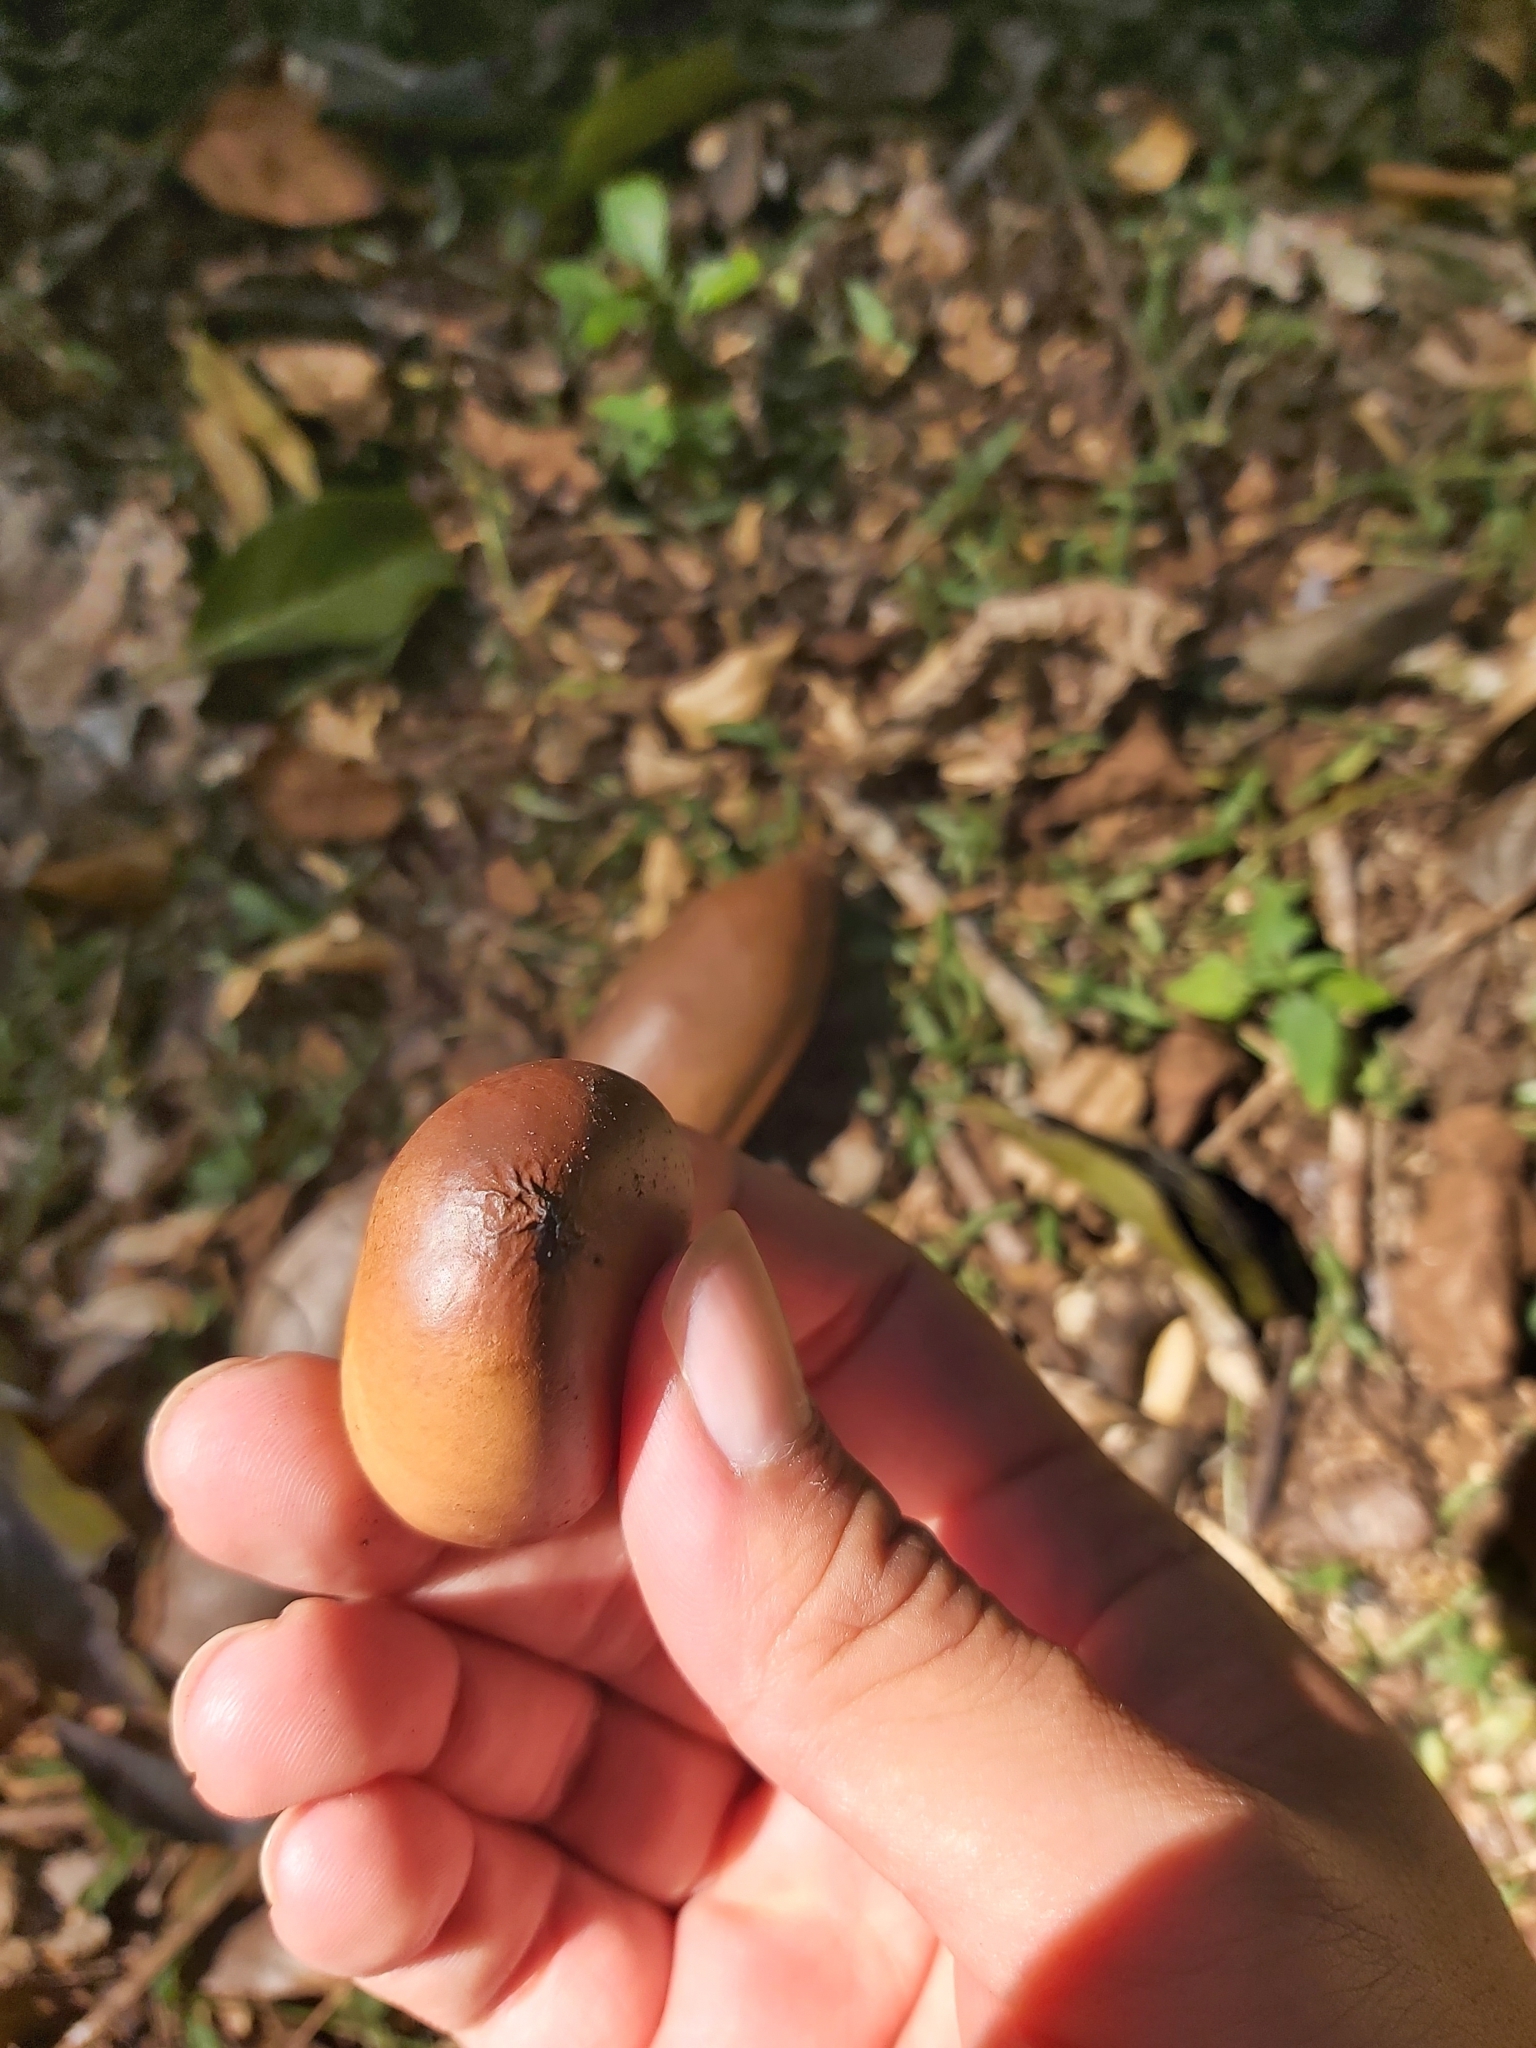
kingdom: Plantae
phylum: Tracheophyta
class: Magnoliopsida
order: Fabales
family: Fabaceae
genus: Castanospermum
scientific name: Castanospermum australe
